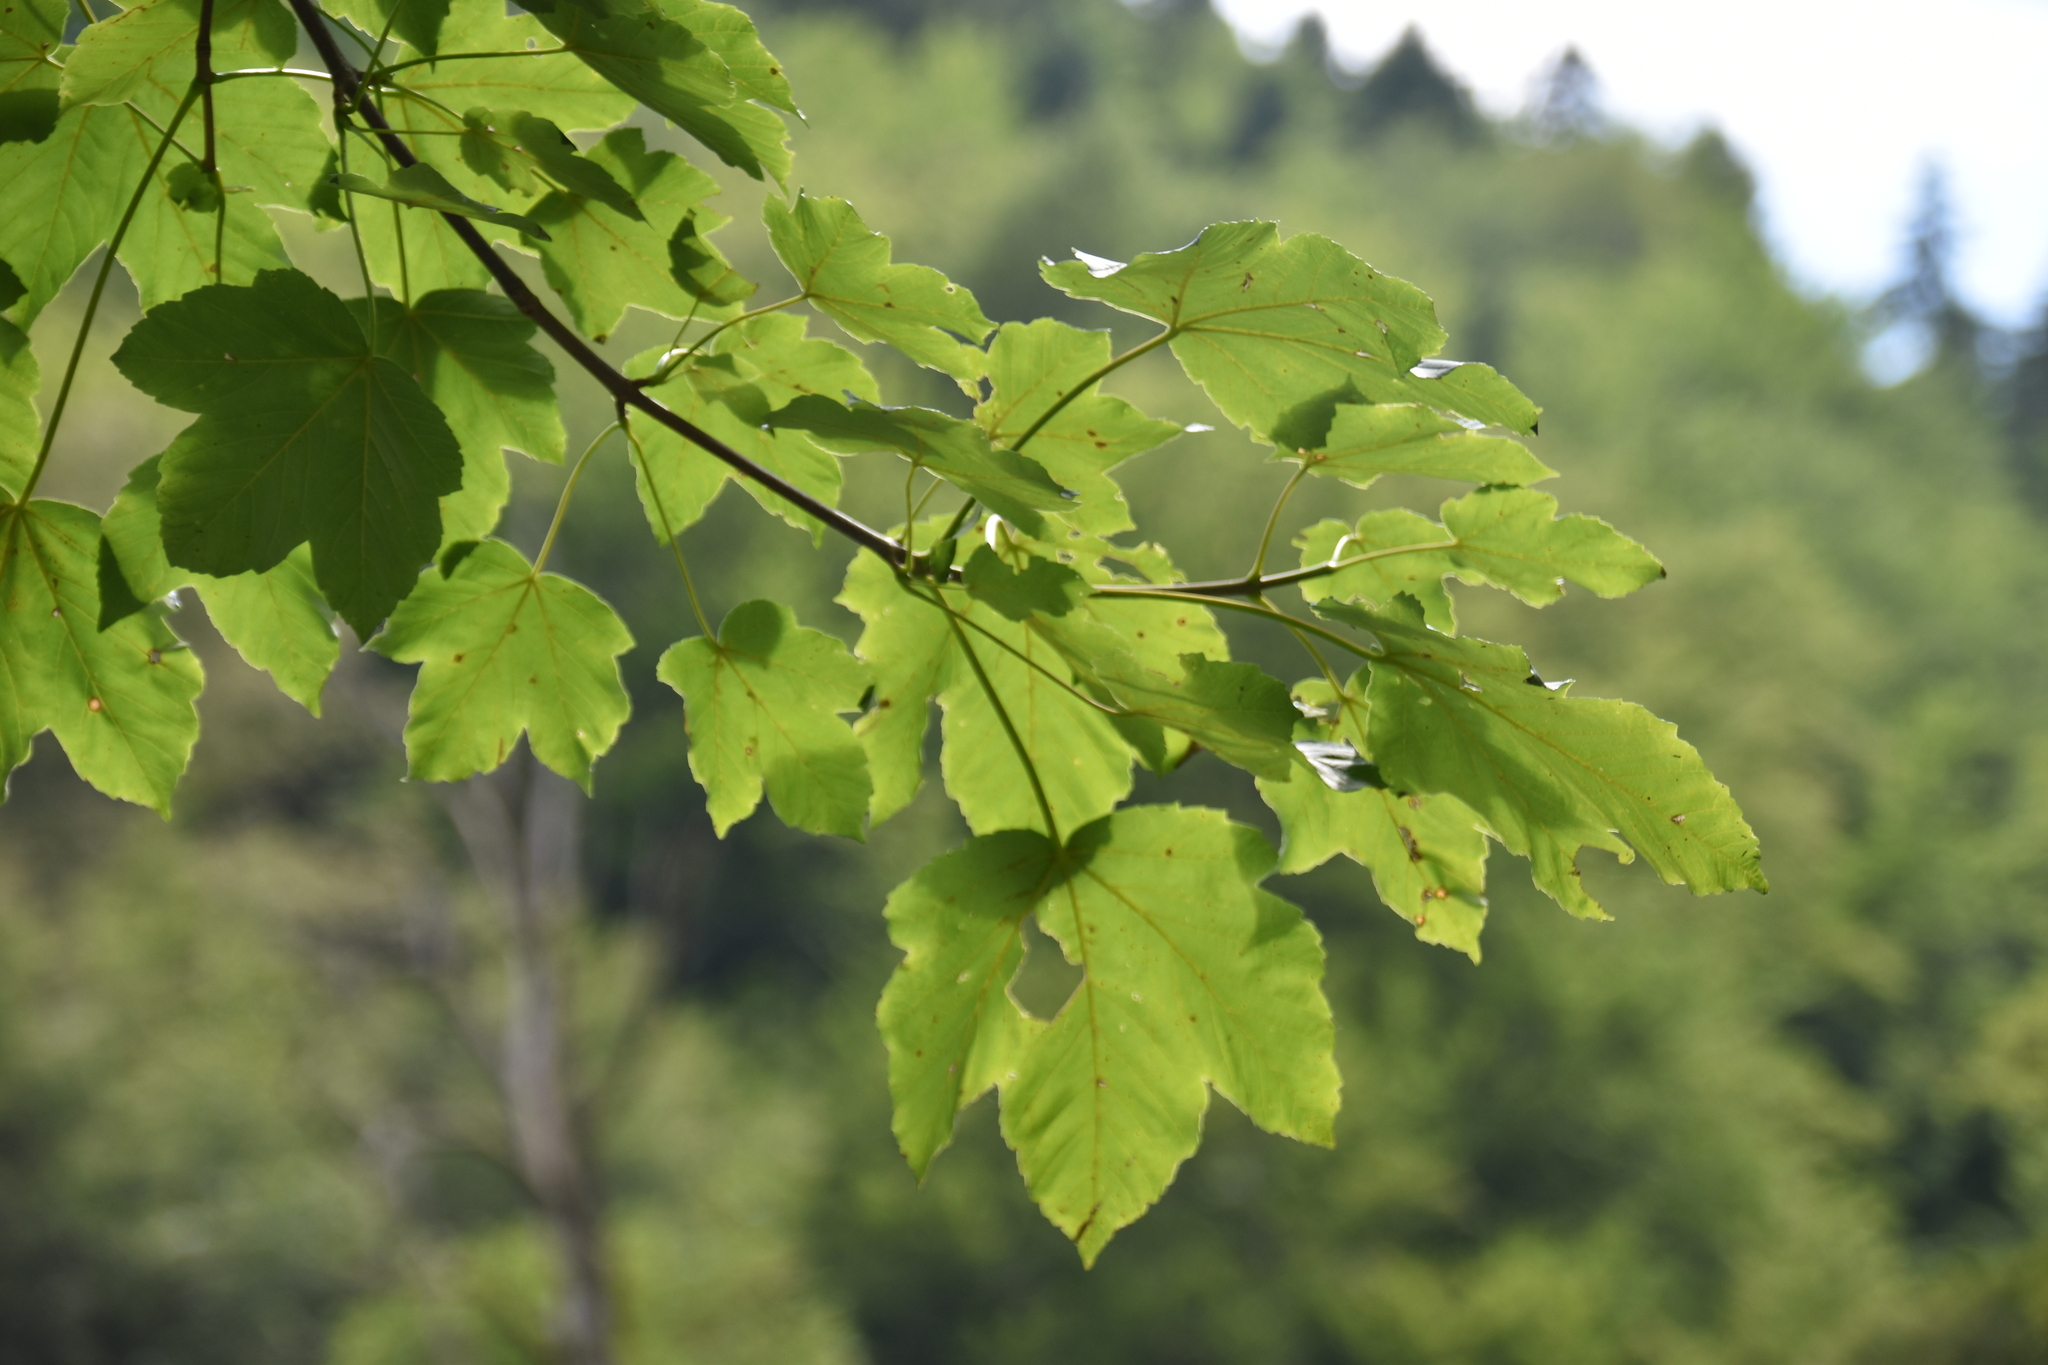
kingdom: Plantae
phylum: Tracheophyta
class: Magnoliopsida
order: Sapindales
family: Sapindaceae
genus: Acer
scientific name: Acer pseudoplatanus
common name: Sycamore
